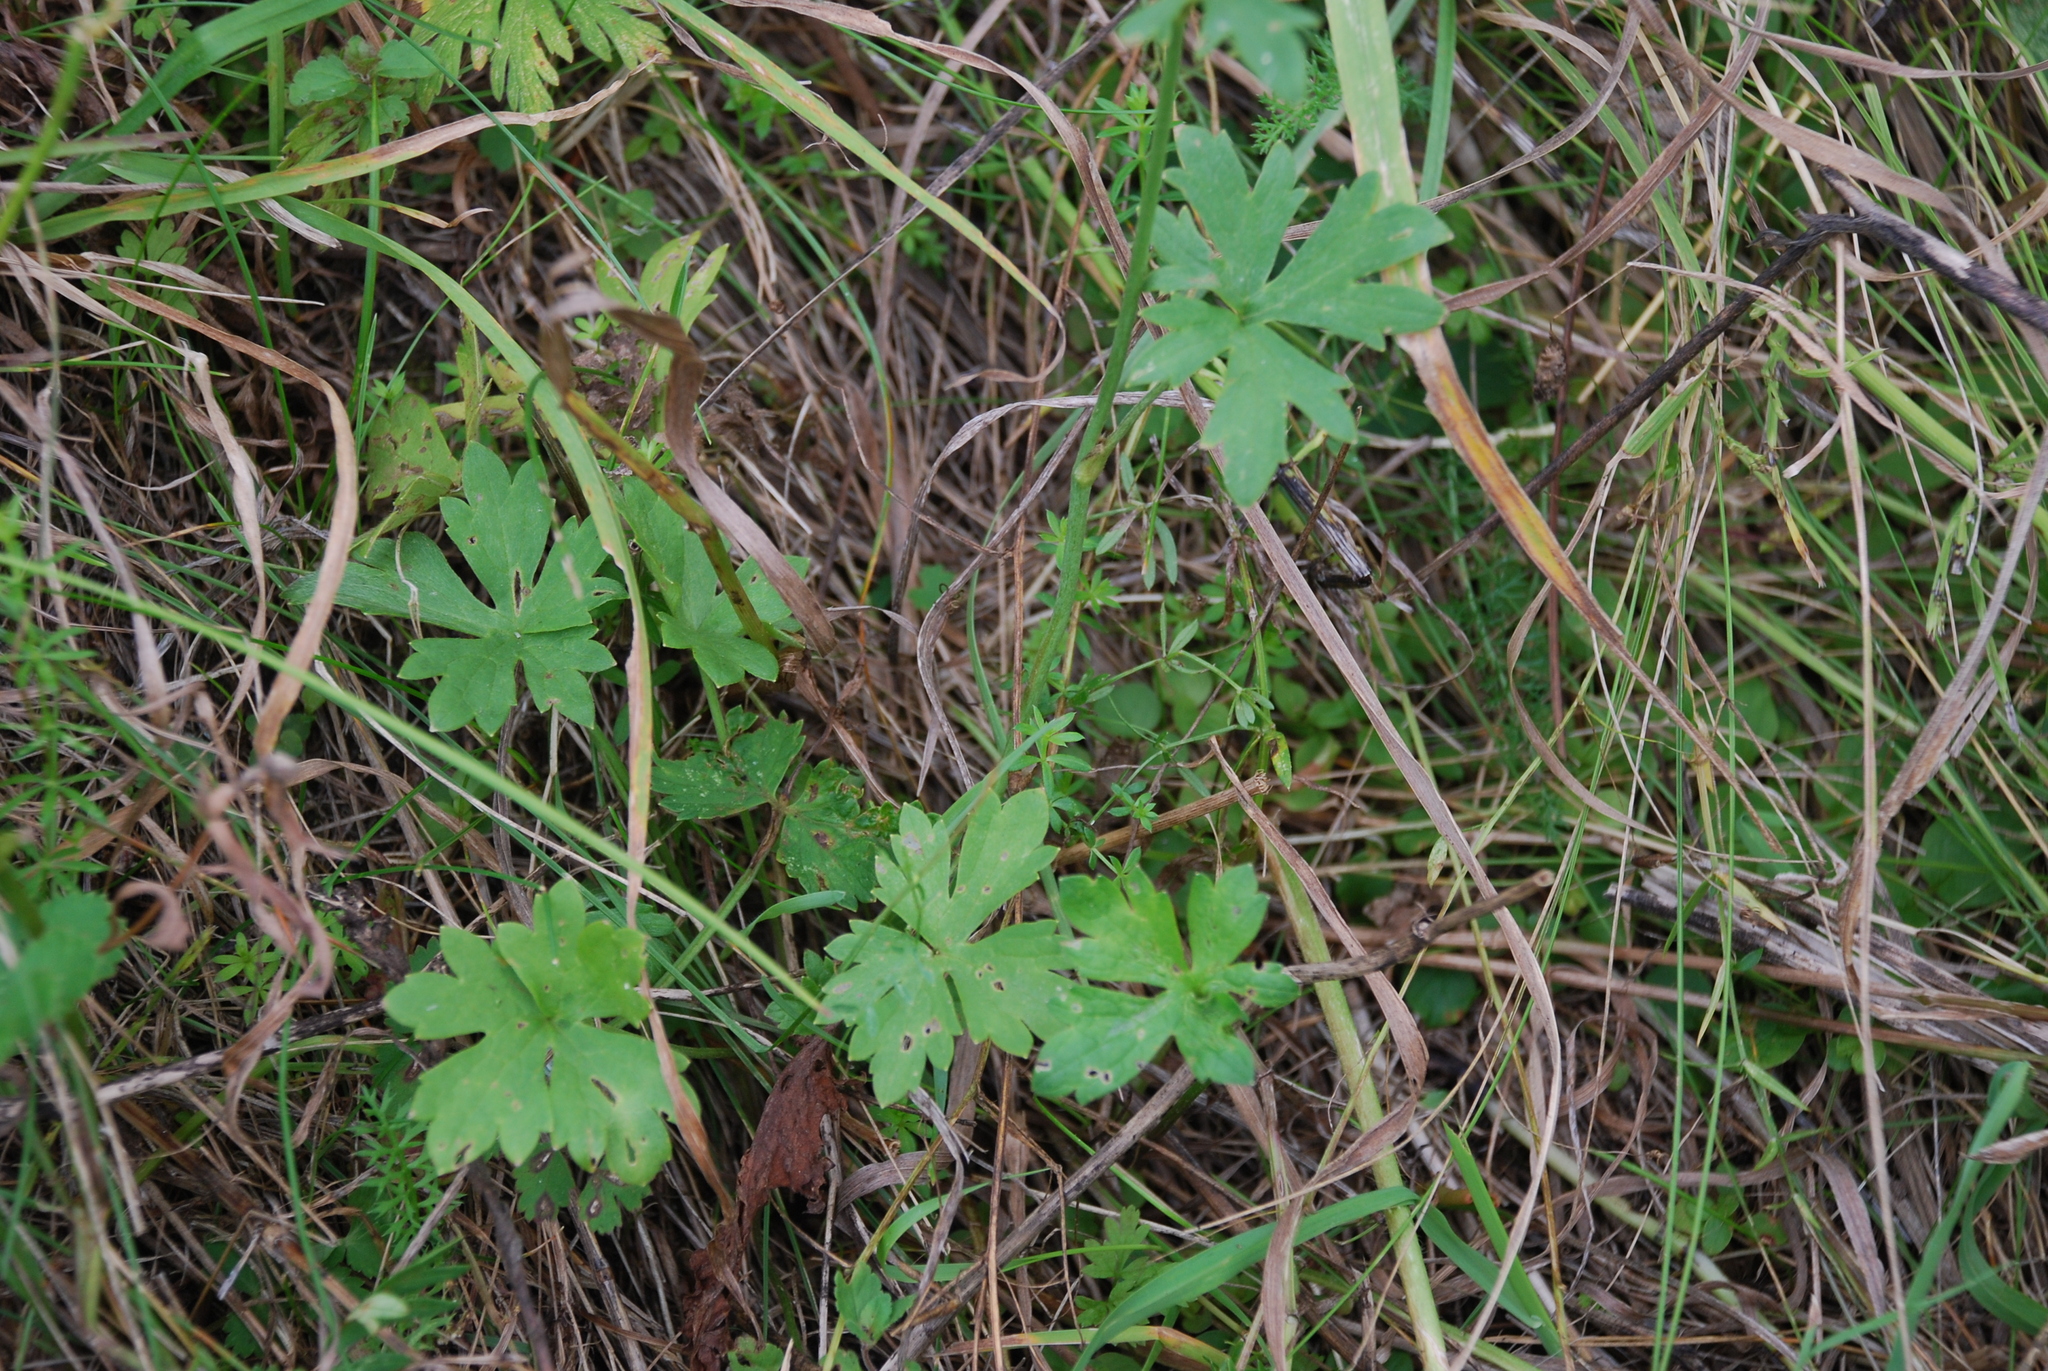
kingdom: Plantae
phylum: Tracheophyta
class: Magnoliopsida
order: Ranunculales
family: Ranunculaceae
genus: Ranunculus
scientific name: Ranunculus acris
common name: Meadow buttercup
